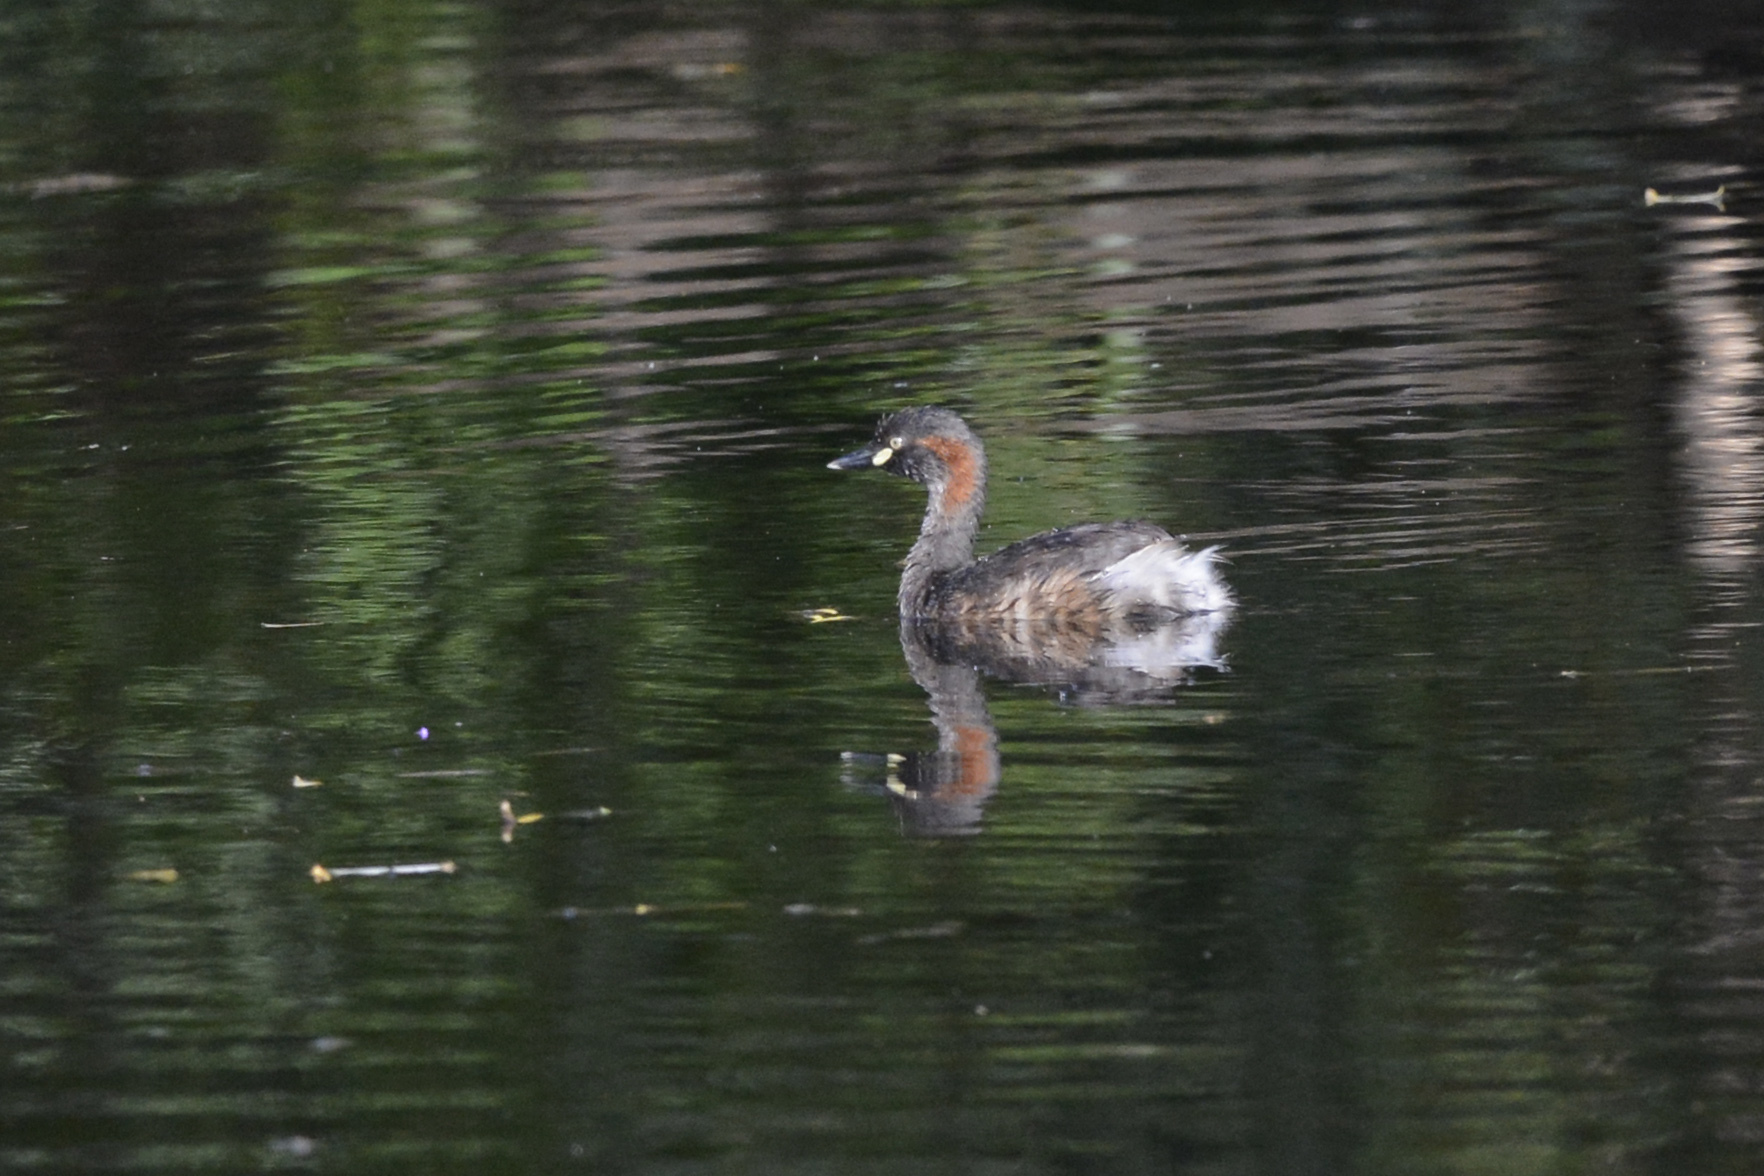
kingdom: Animalia
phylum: Chordata
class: Aves
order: Podicipediformes
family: Podicipedidae
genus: Tachybaptus
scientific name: Tachybaptus novaehollandiae
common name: Australasian grebe
